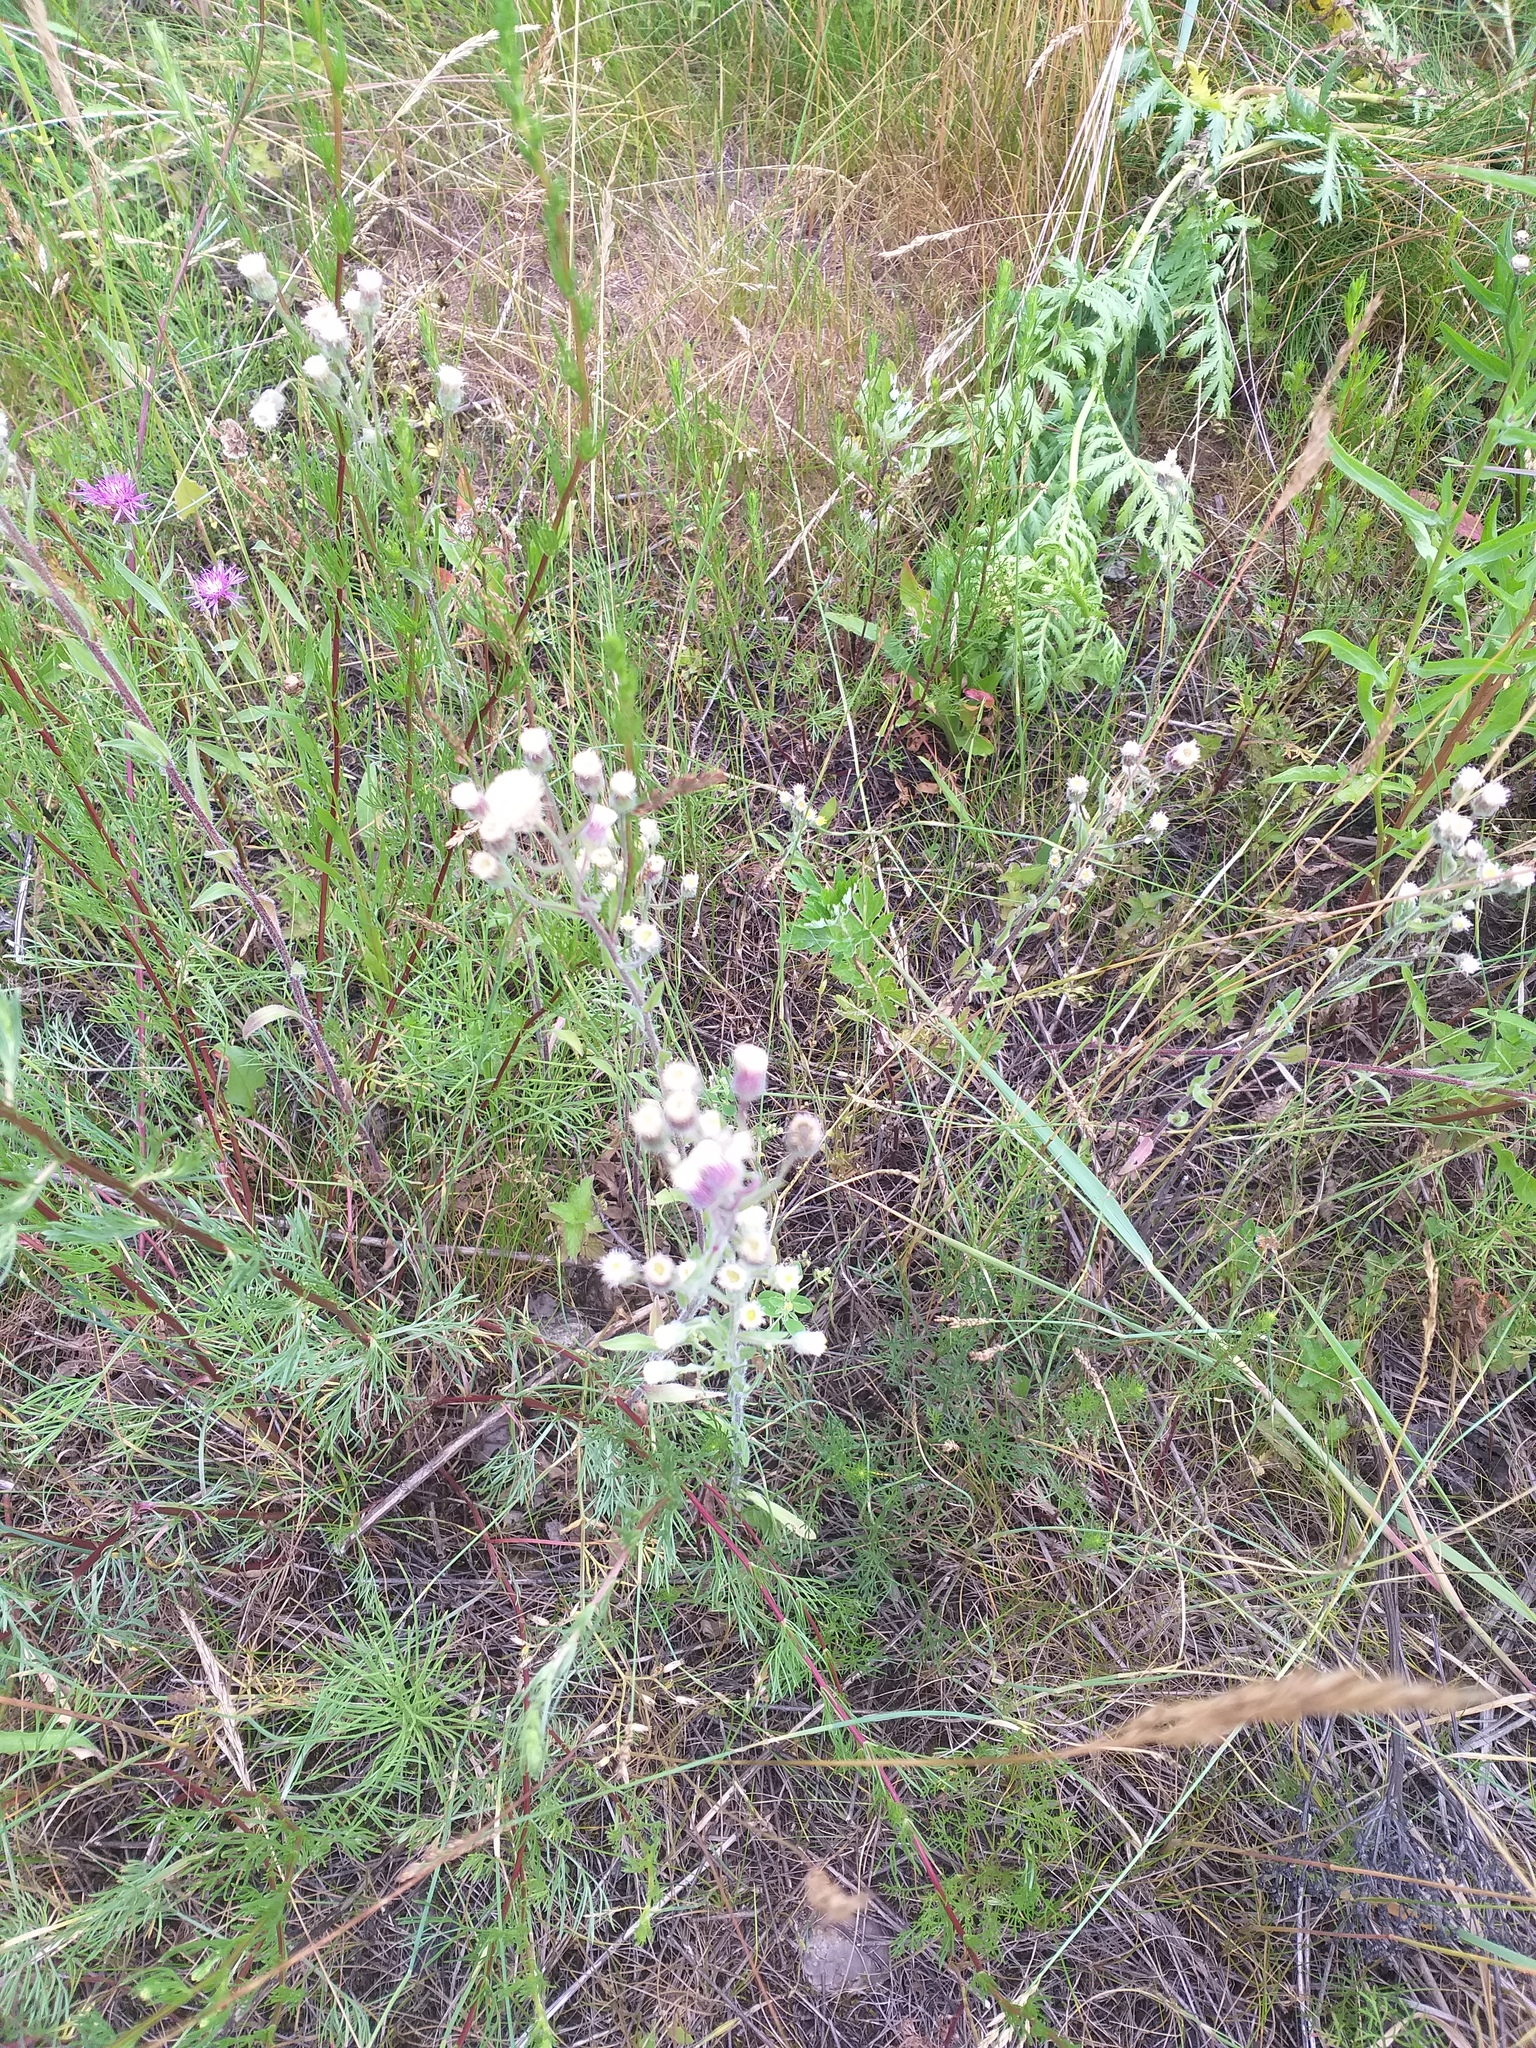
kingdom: Plantae
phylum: Tracheophyta
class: Magnoliopsida
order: Asterales
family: Asteraceae
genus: Erigeron
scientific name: Erigeron acris
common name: Blue fleabane
